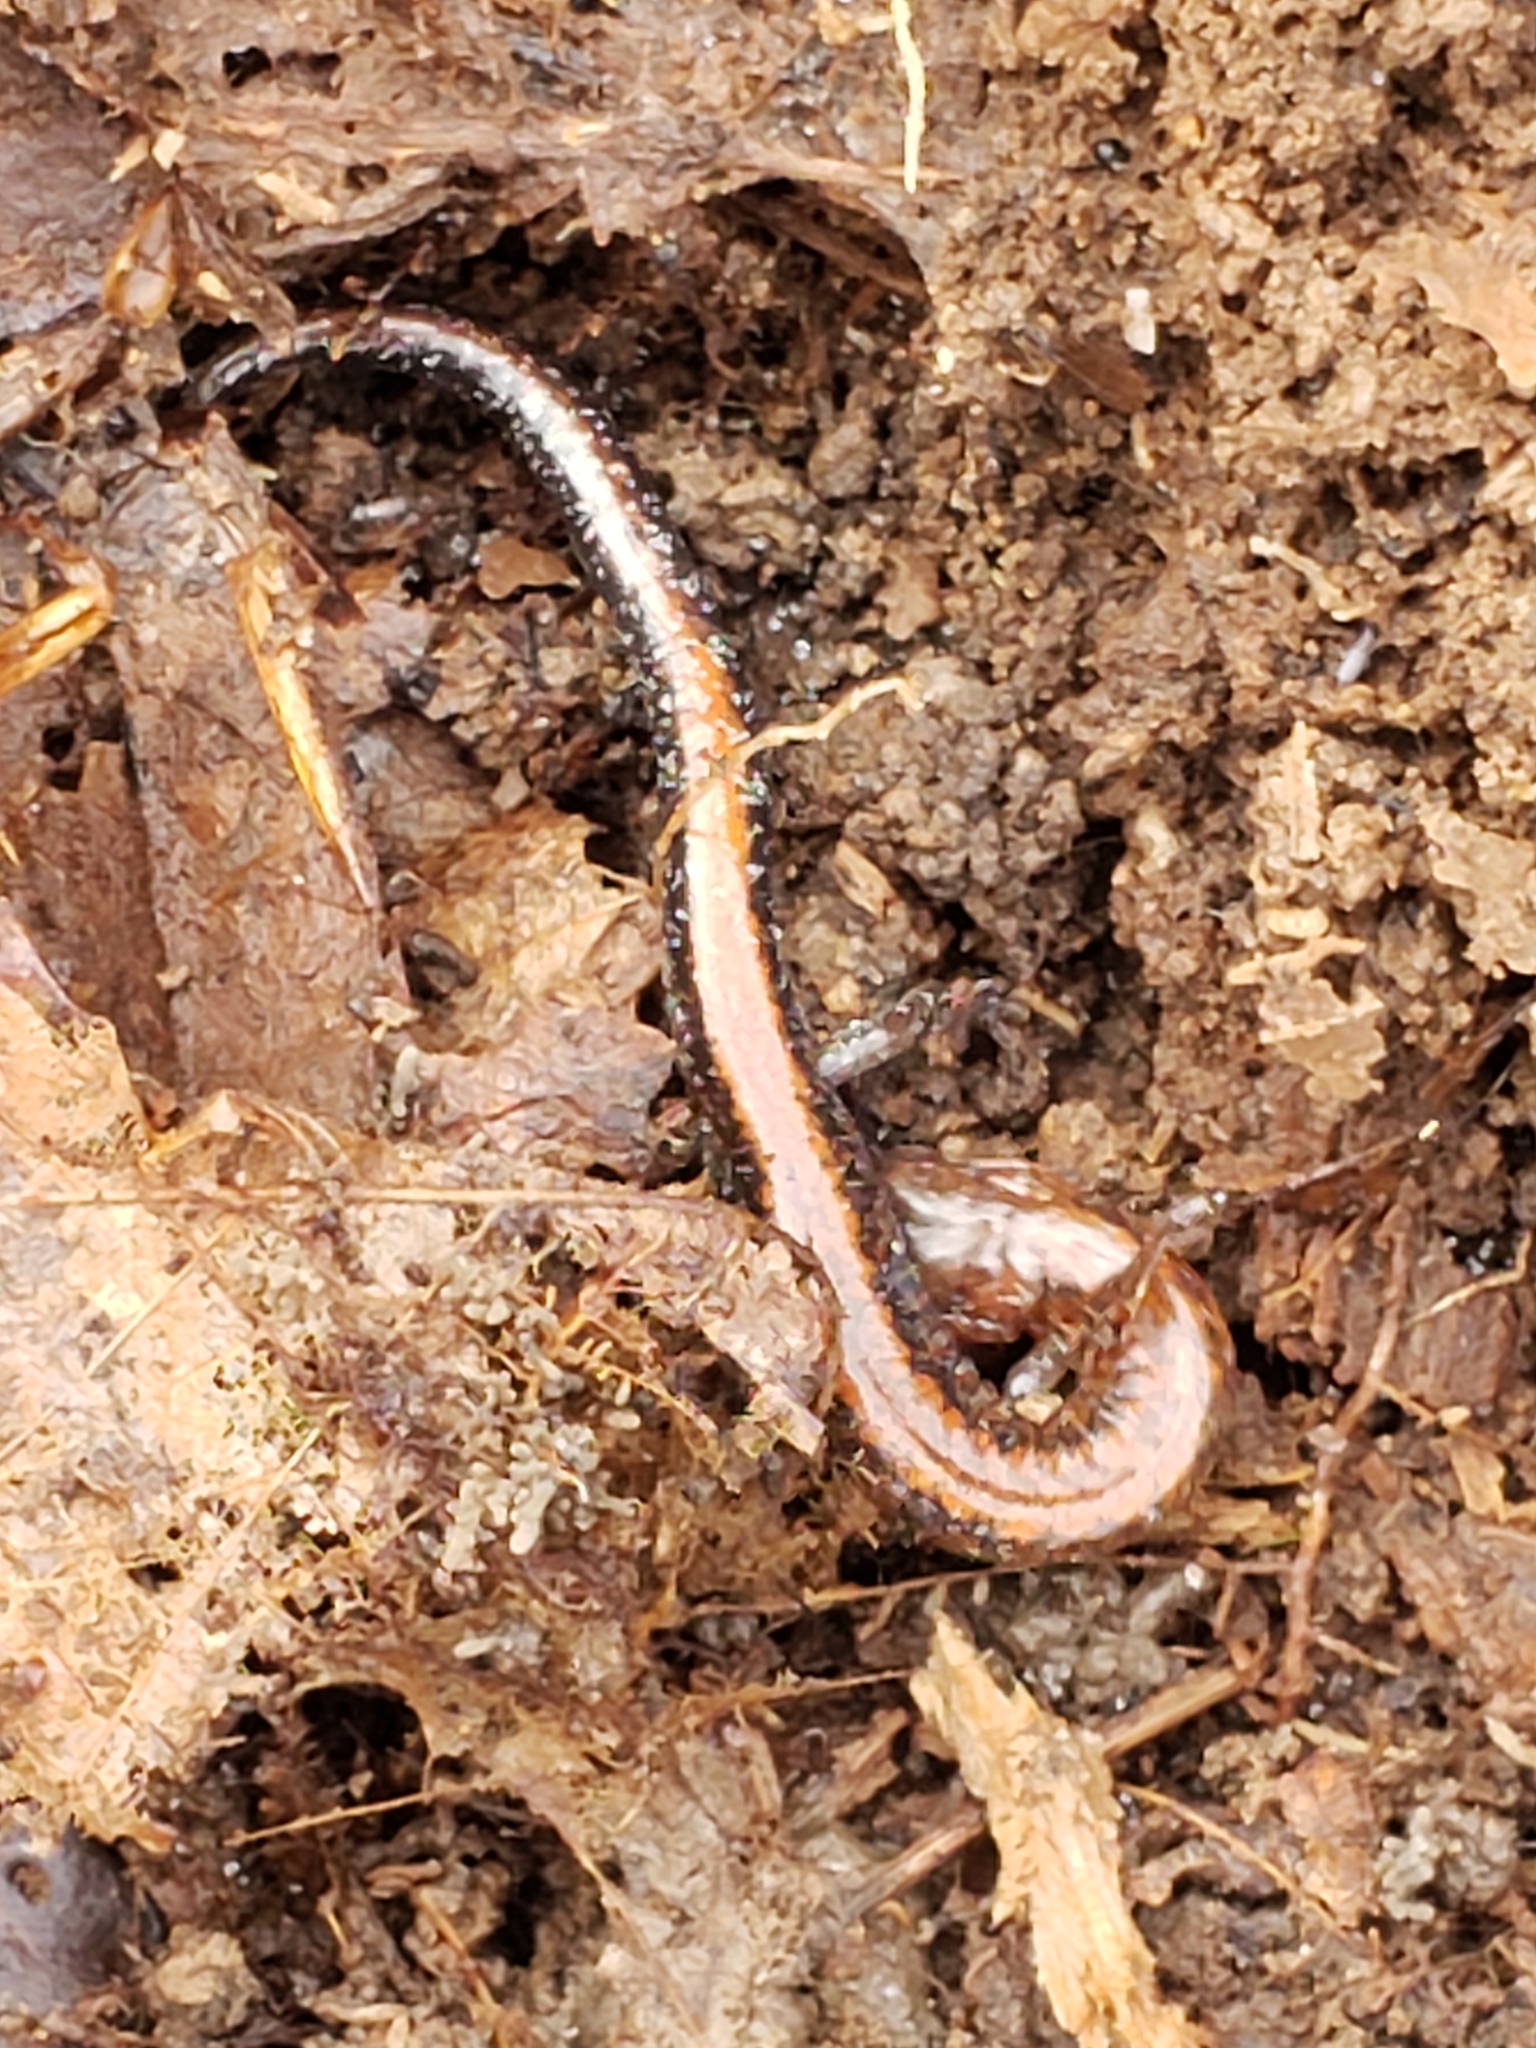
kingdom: Animalia
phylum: Chordata
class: Amphibia
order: Caudata
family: Plethodontidae
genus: Plethodon
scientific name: Plethodon cinereus
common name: Redback salamander
